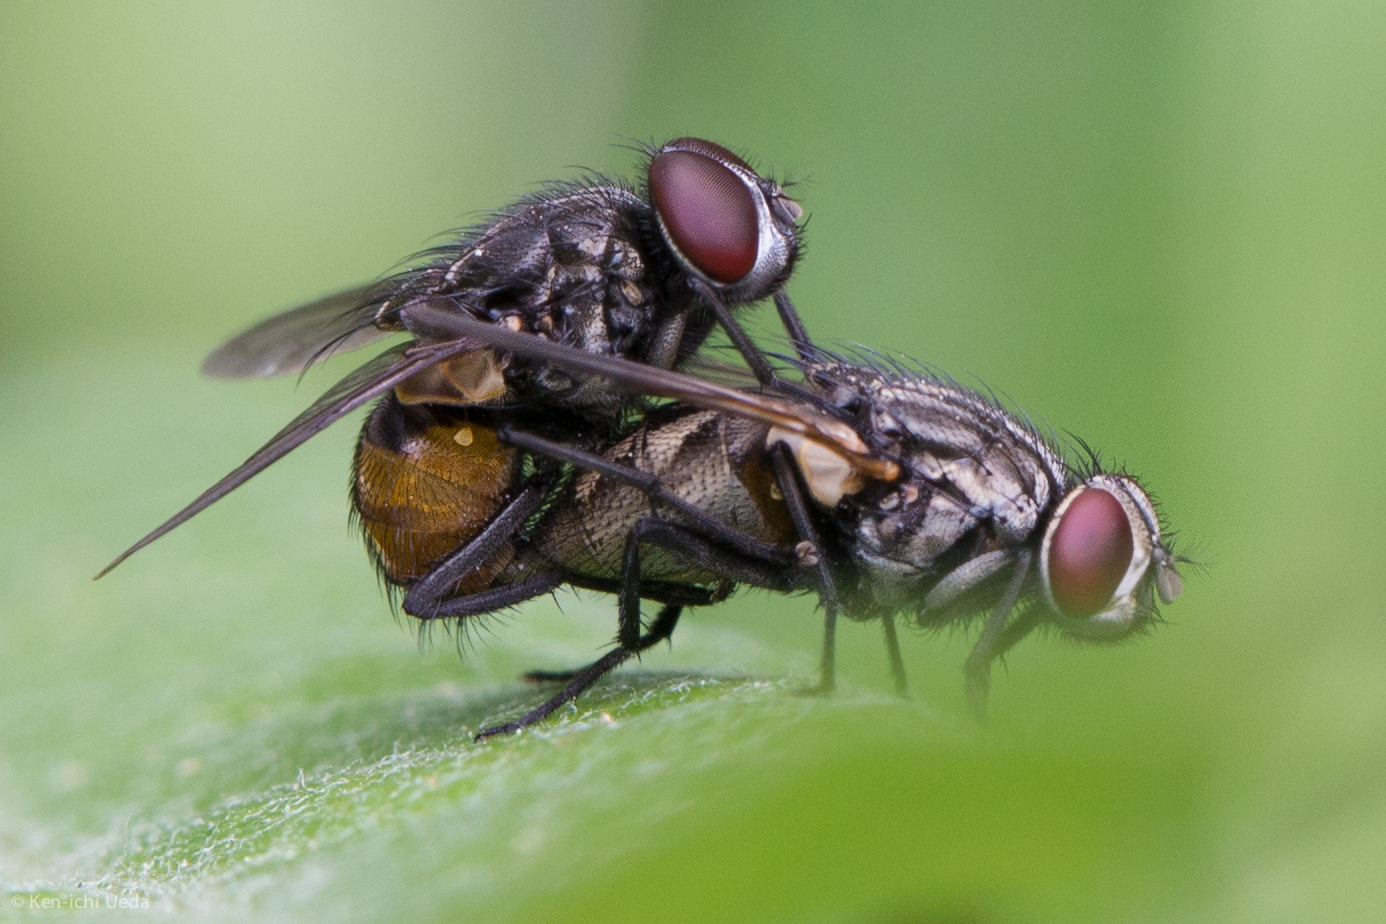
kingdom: Animalia
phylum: Arthropoda
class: Insecta
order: Diptera
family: Muscidae
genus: Musca
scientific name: Musca autumnalis
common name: Face fly
